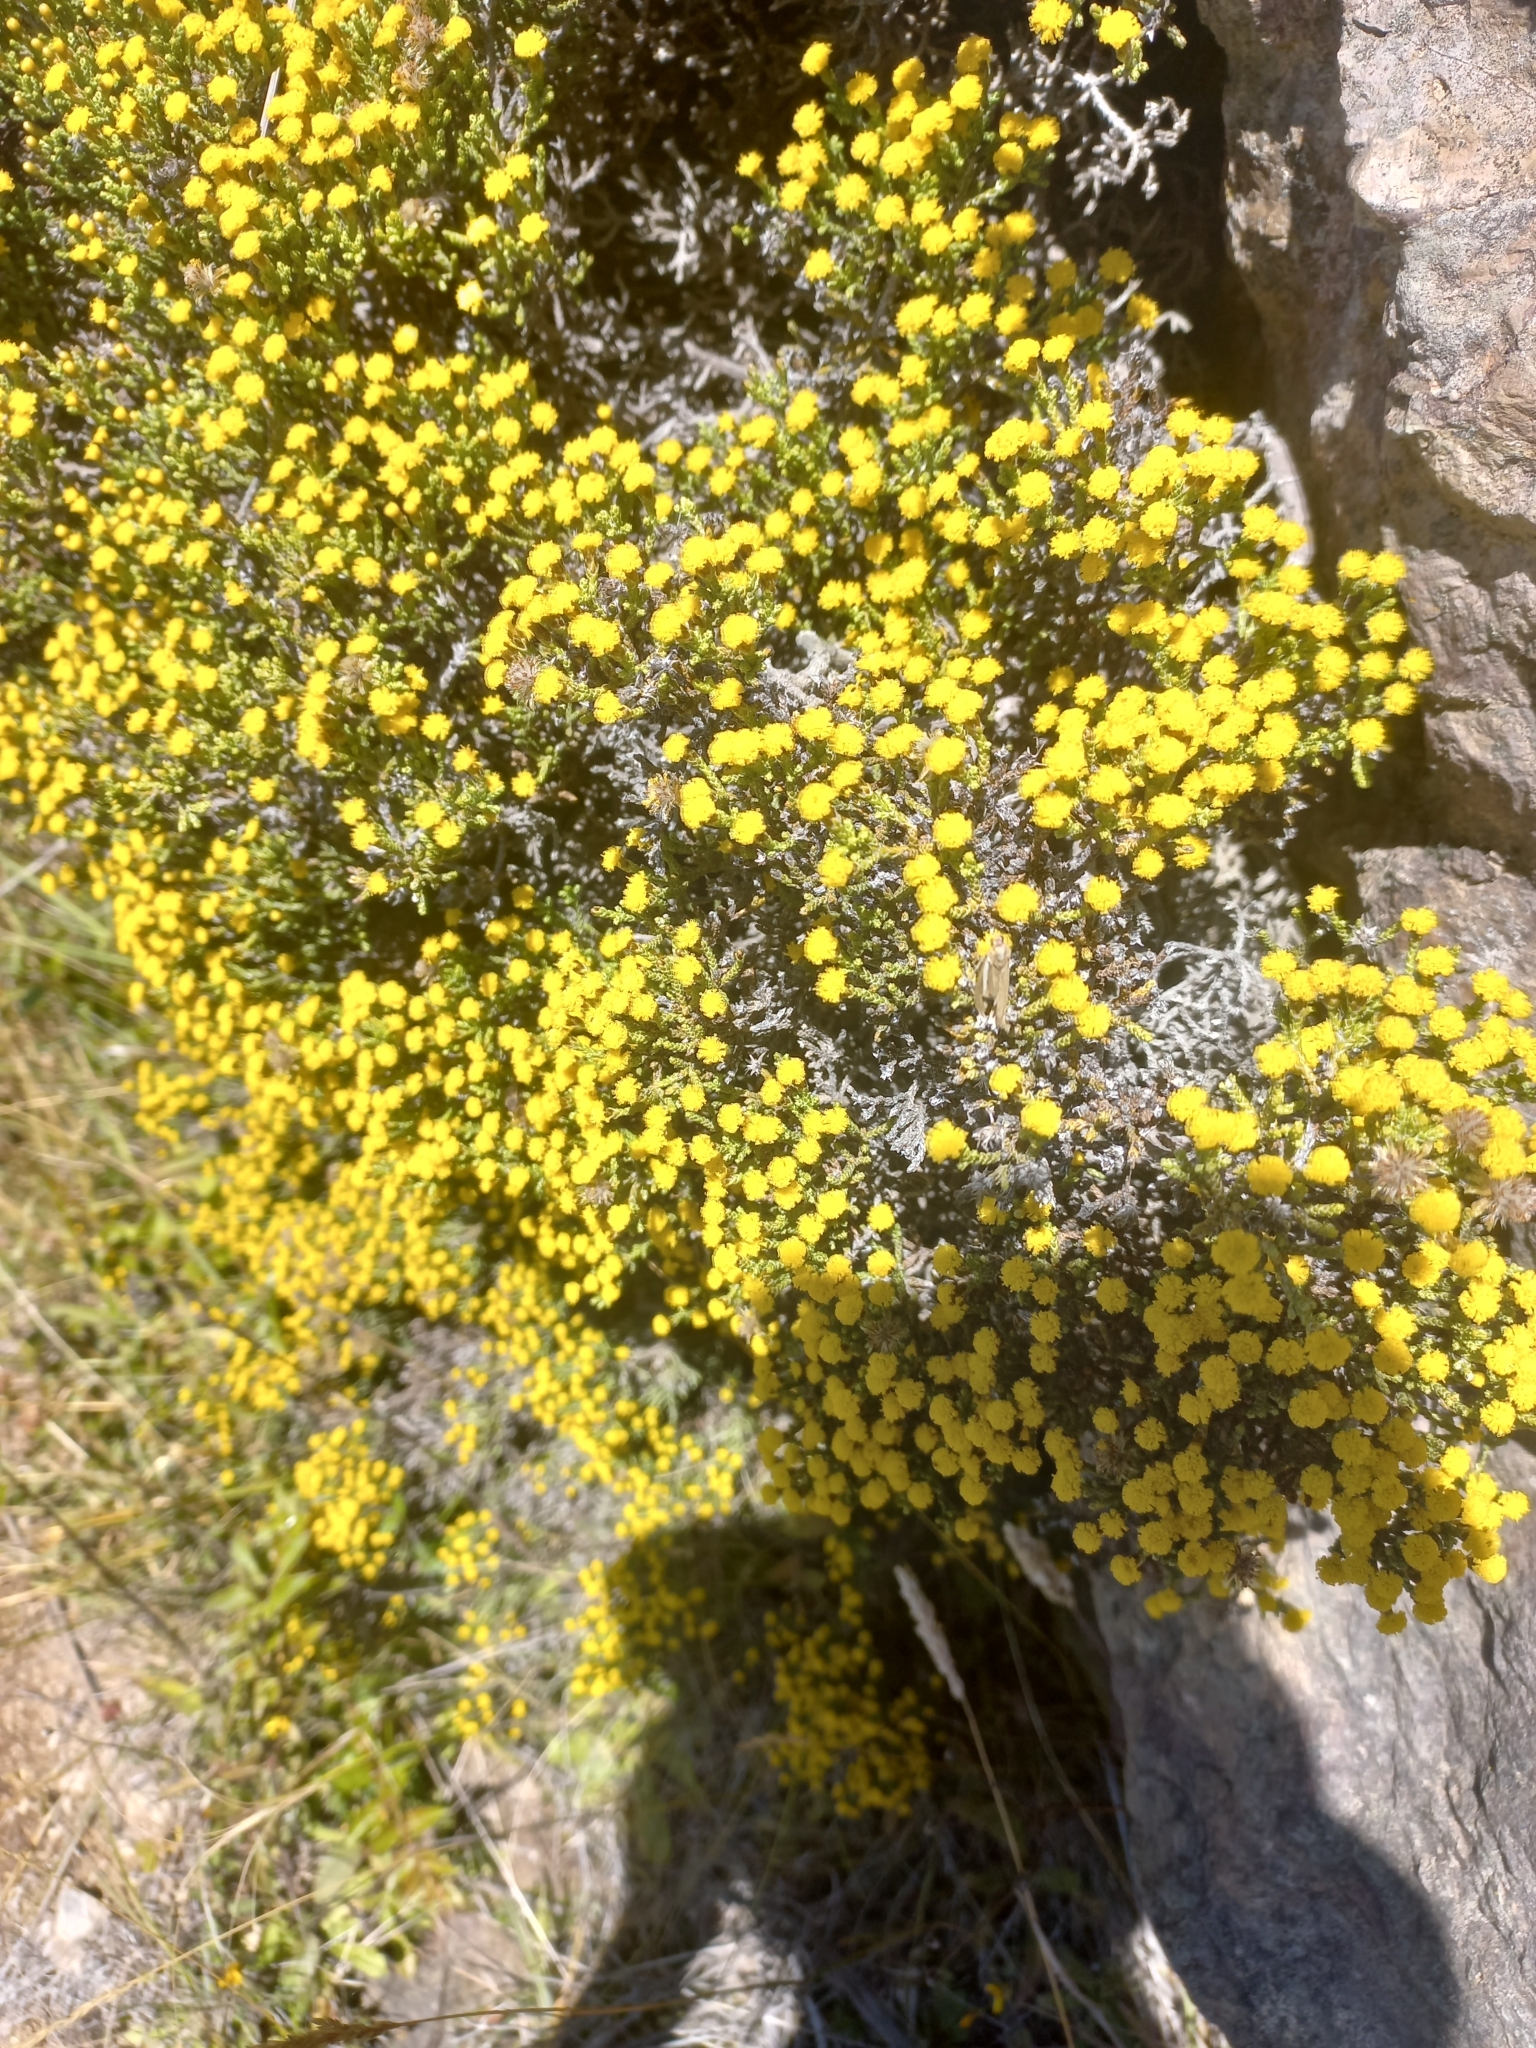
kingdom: Plantae
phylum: Tracheophyta
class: Magnoliopsida
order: Asterales
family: Asteraceae
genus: Ozothamnus
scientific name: Ozothamnus parvifolius
